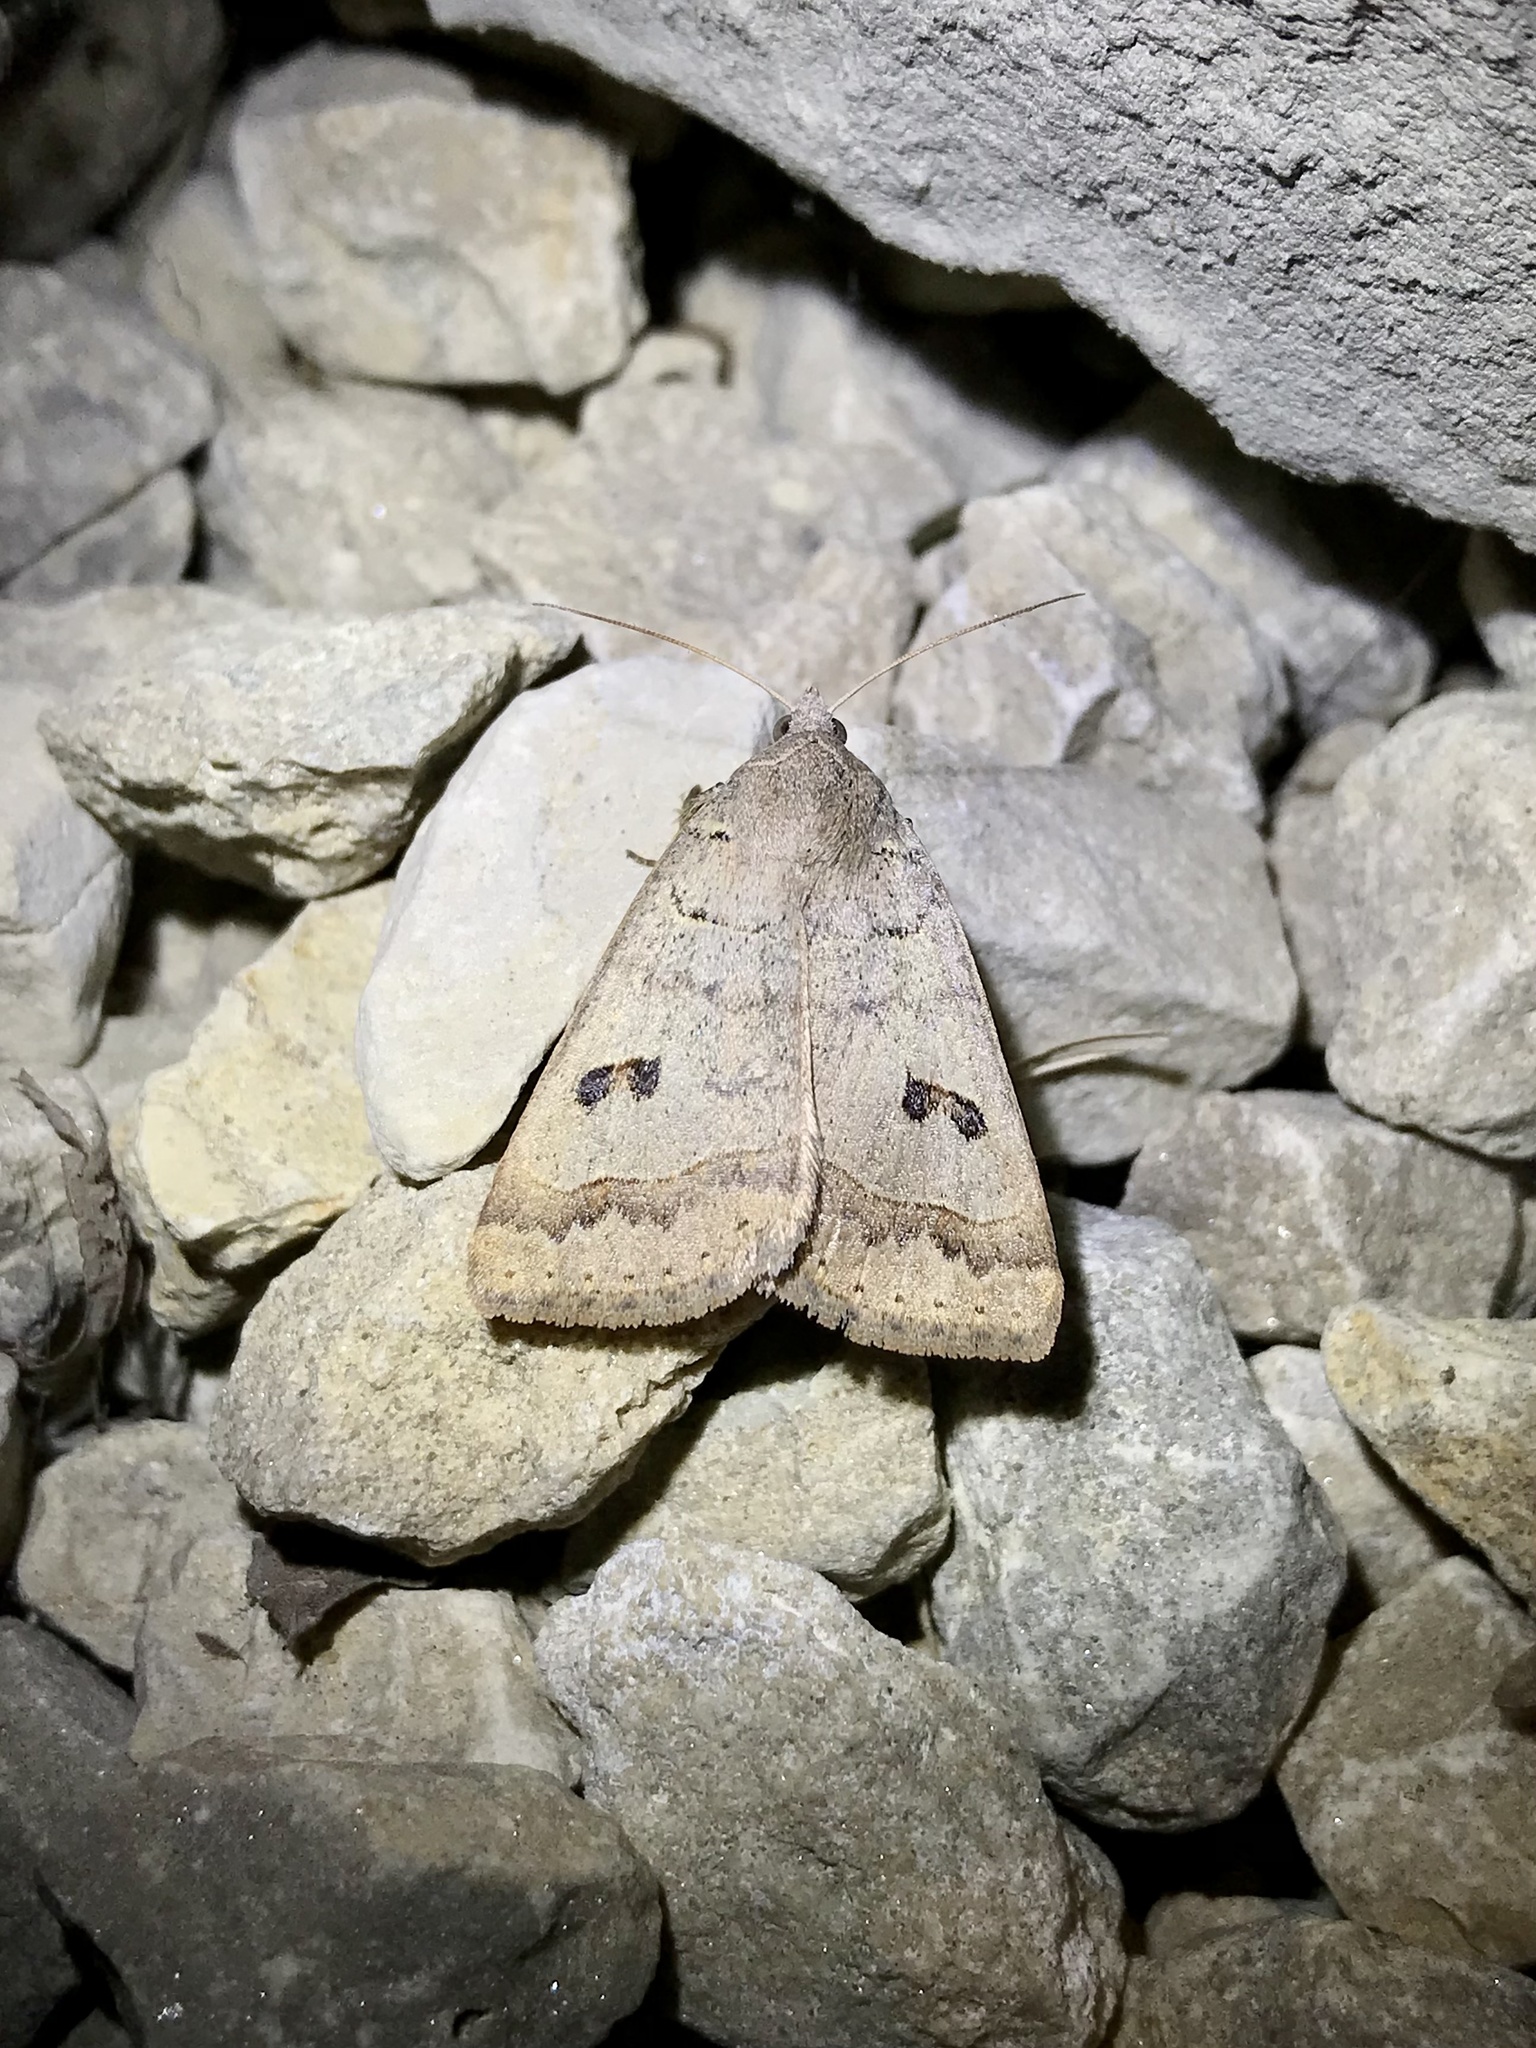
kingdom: Animalia
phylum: Arthropoda
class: Insecta
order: Lepidoptera
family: Erebidae
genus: Phoberia
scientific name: Phoberia atomaris
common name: Common oak moth
